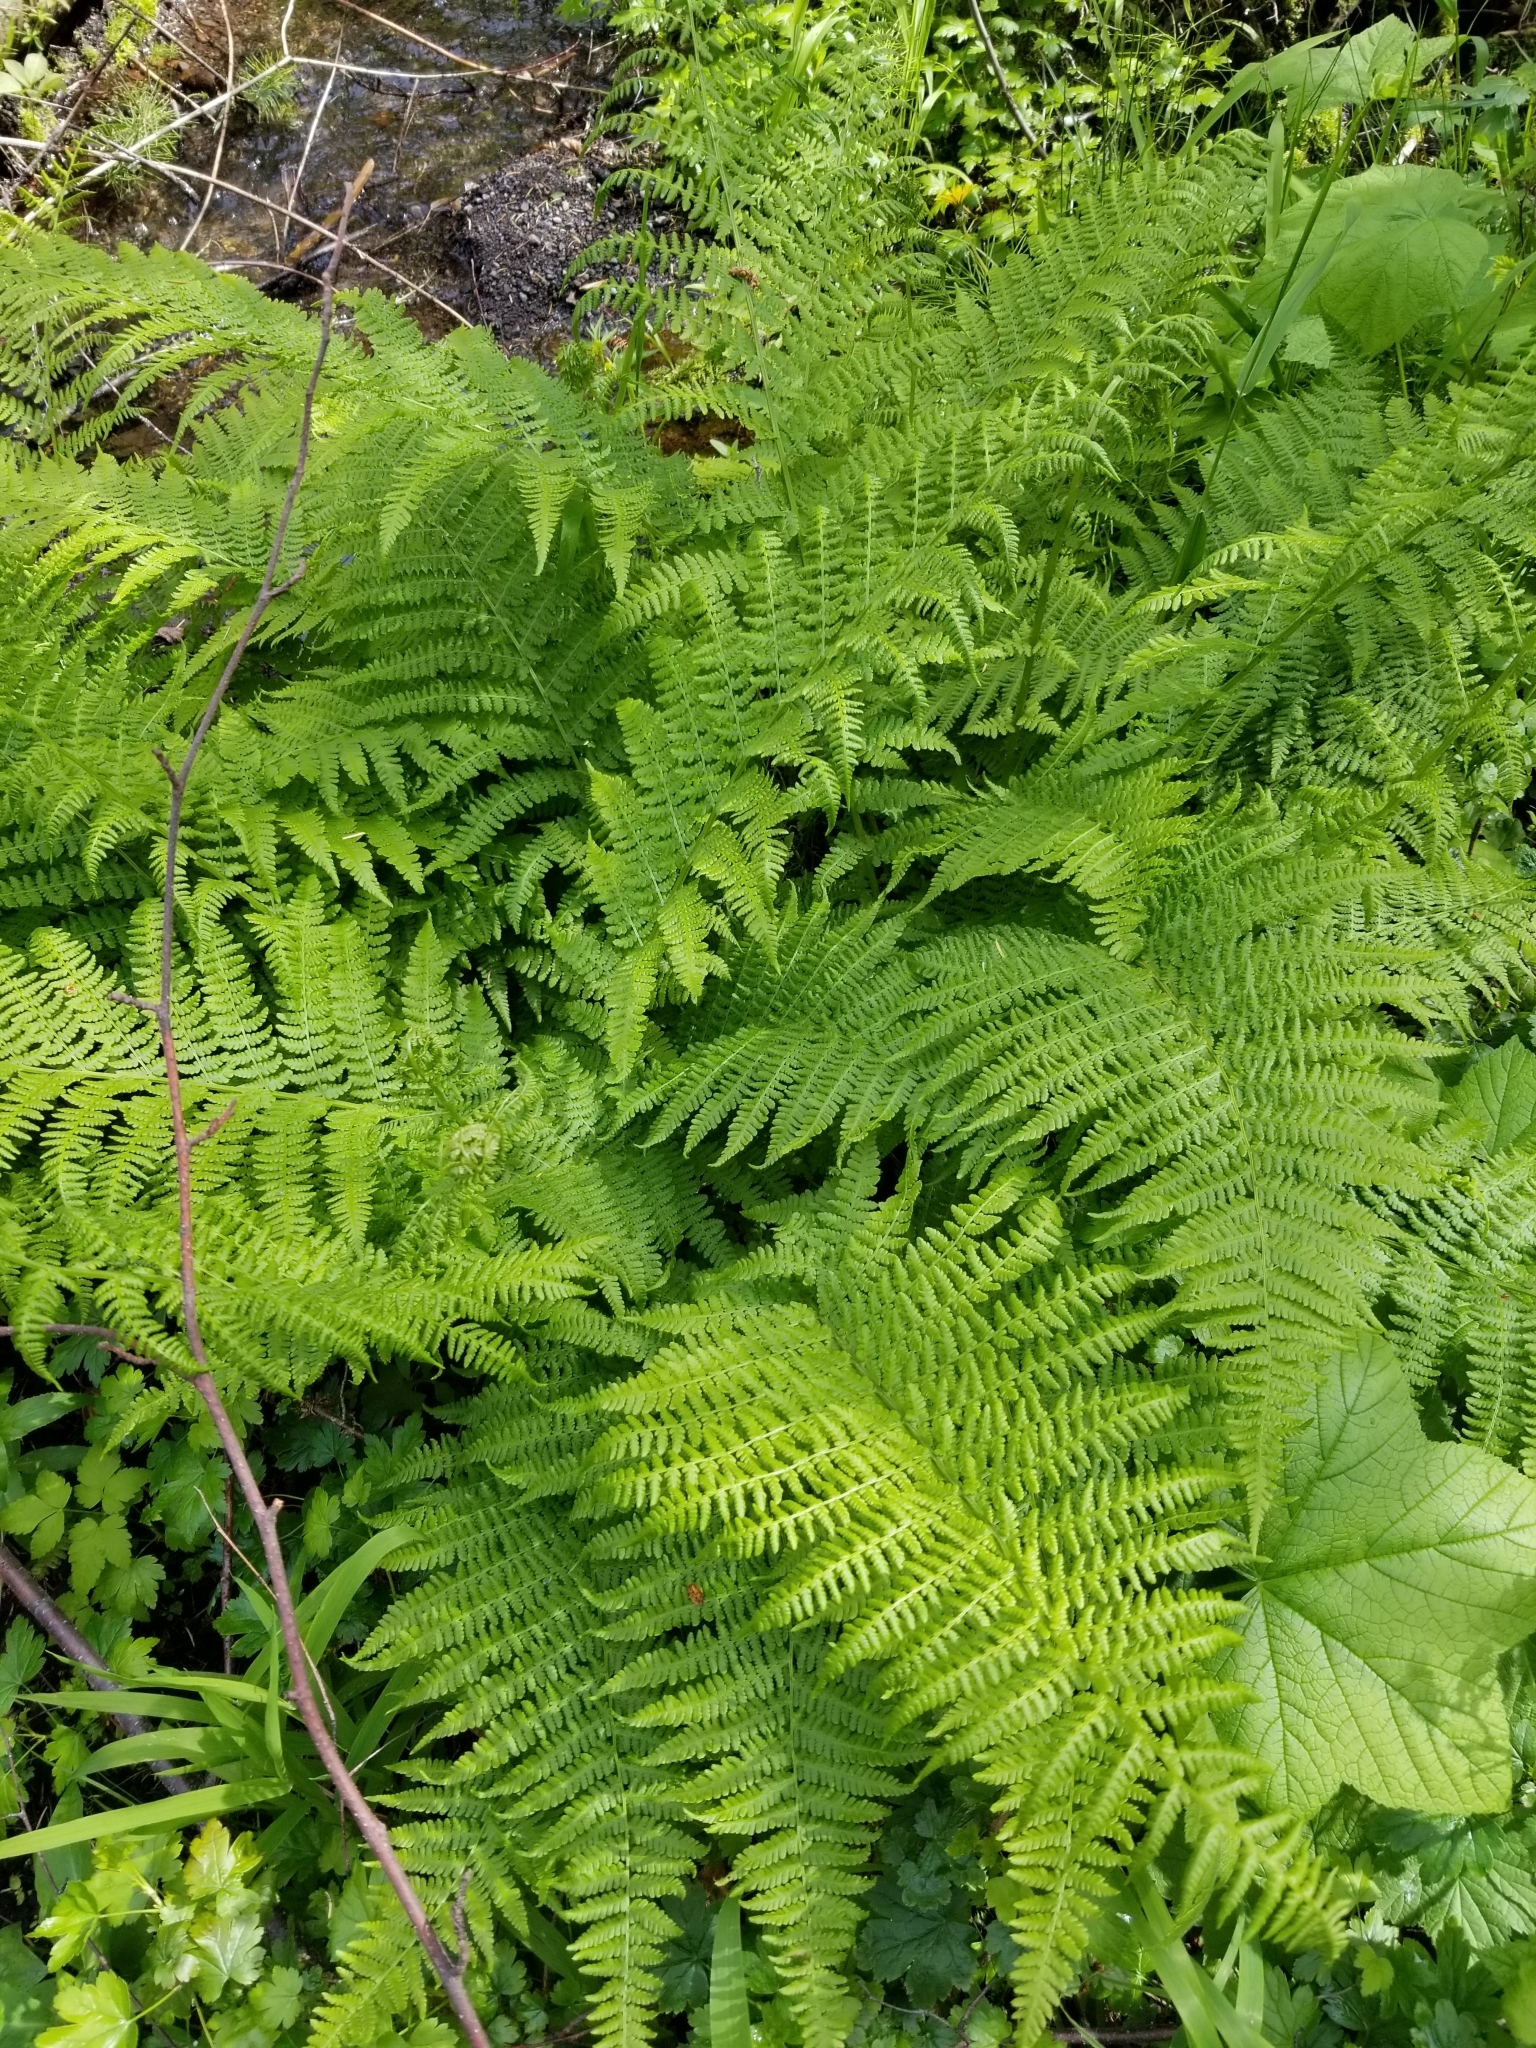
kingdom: Plantae
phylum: Tracheophyta
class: Polypodiopsida
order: Polypodiales
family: Athyriaceae
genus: Athyrium
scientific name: Athyrium filix-femina
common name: Lady fern
